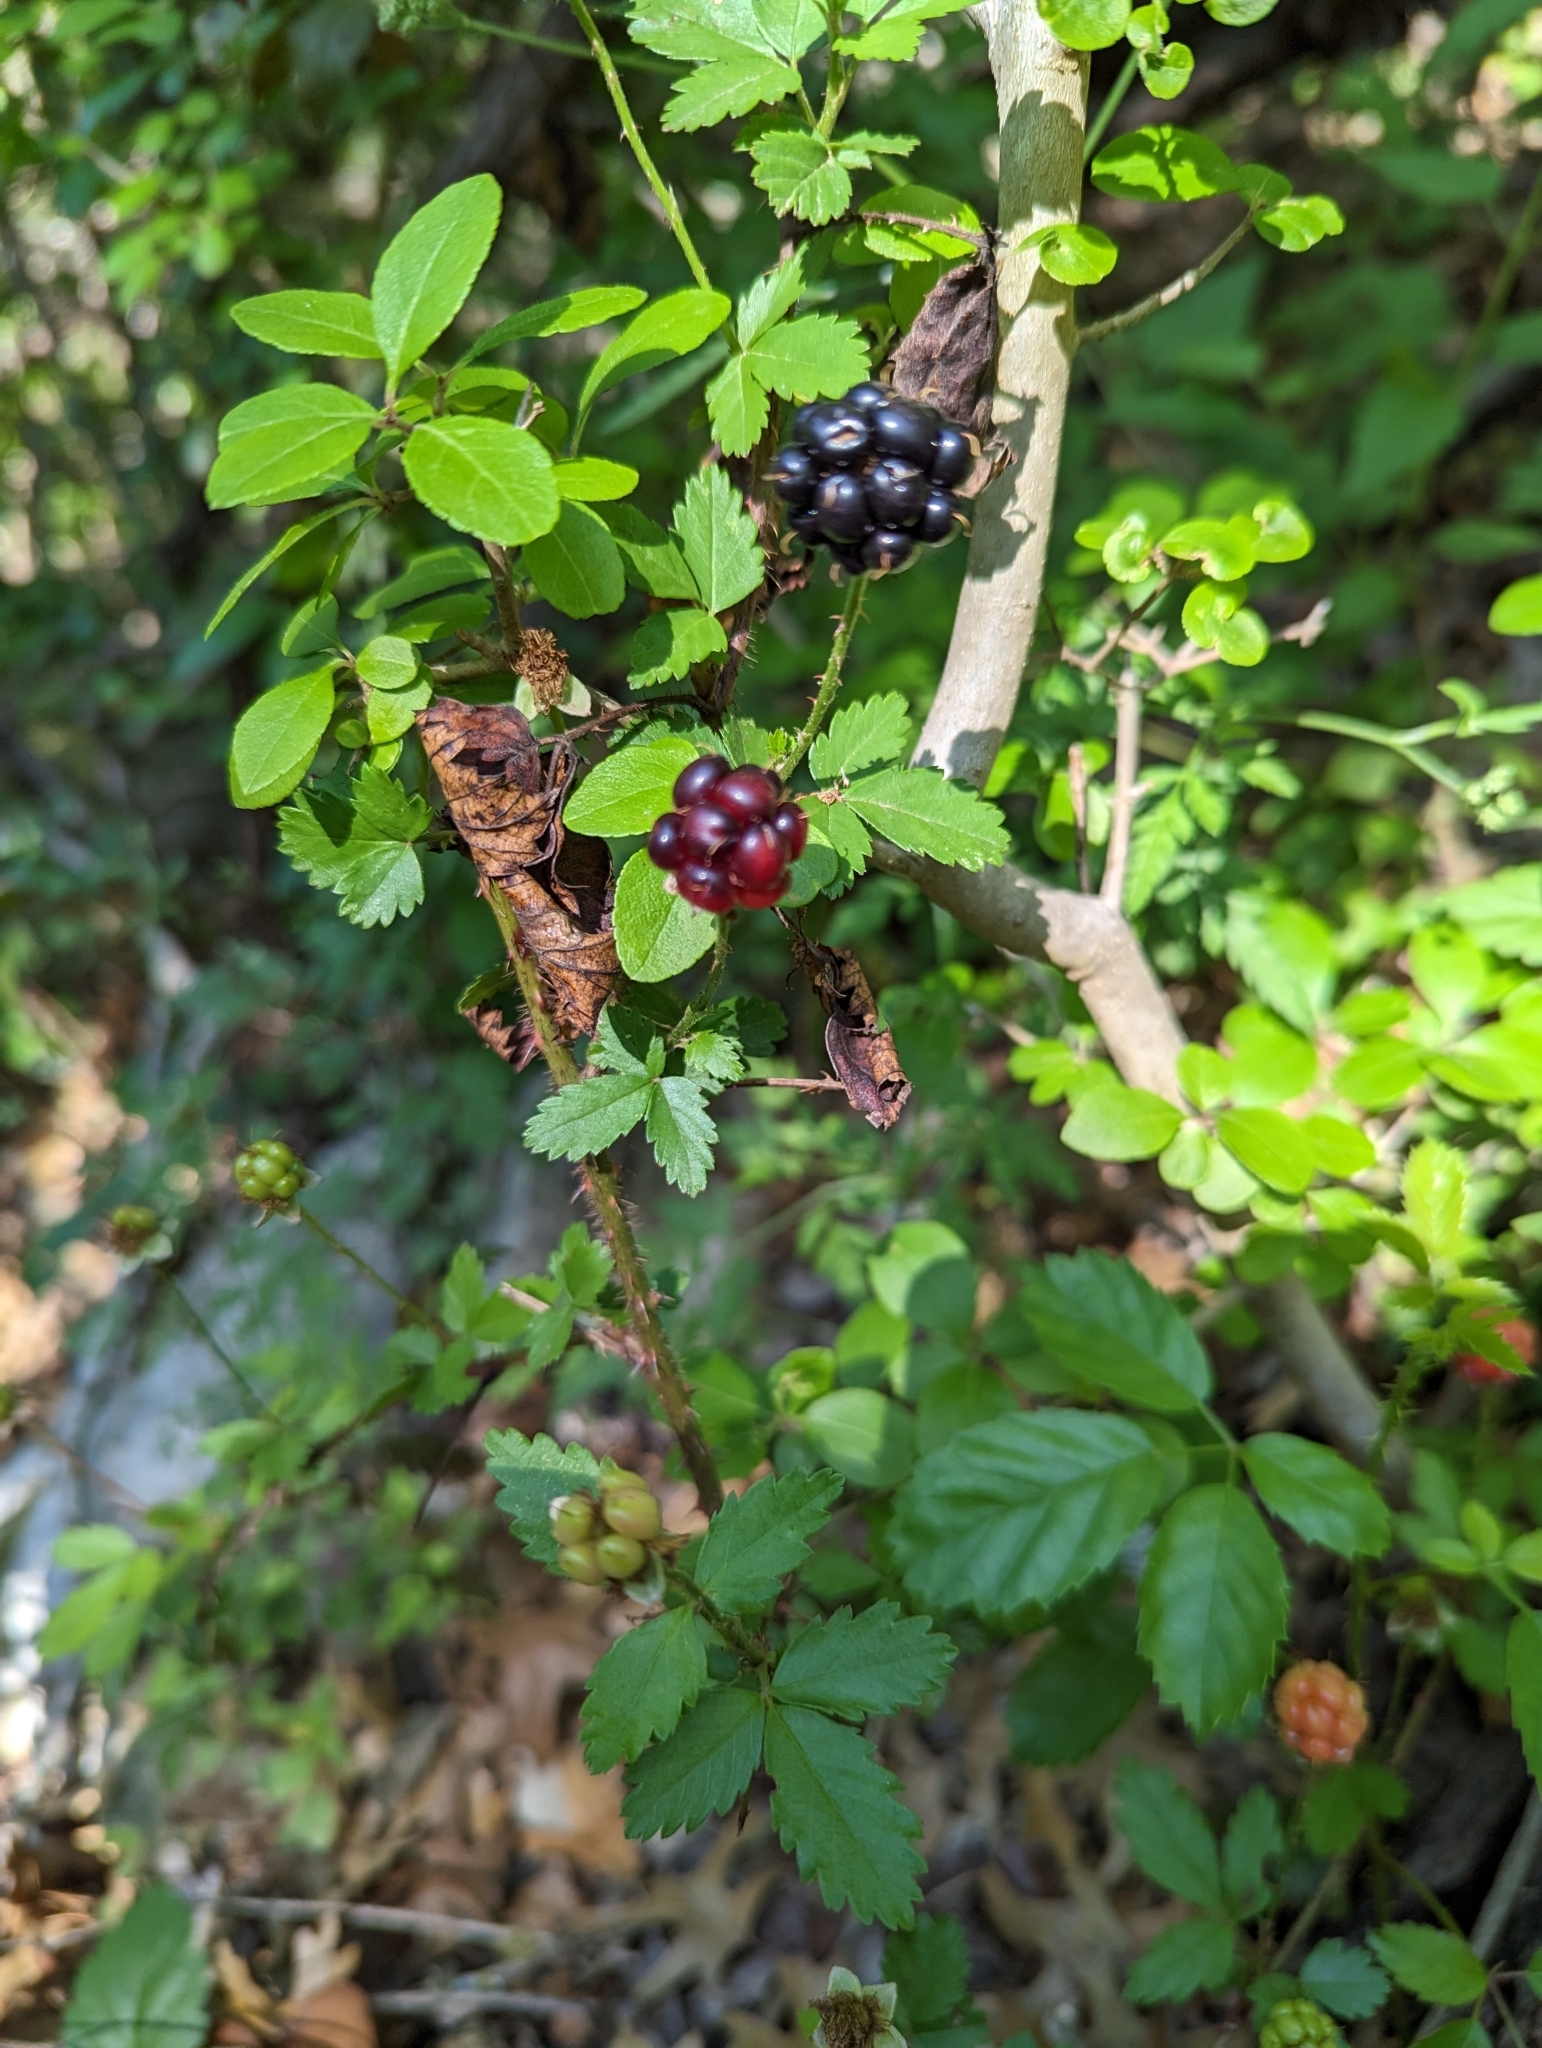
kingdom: Plantae
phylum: Tracheophyta
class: Magnoliopsida
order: Rosales
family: Rosaceae
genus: Rubus
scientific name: Rubus trivialis
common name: Southern dewberry
